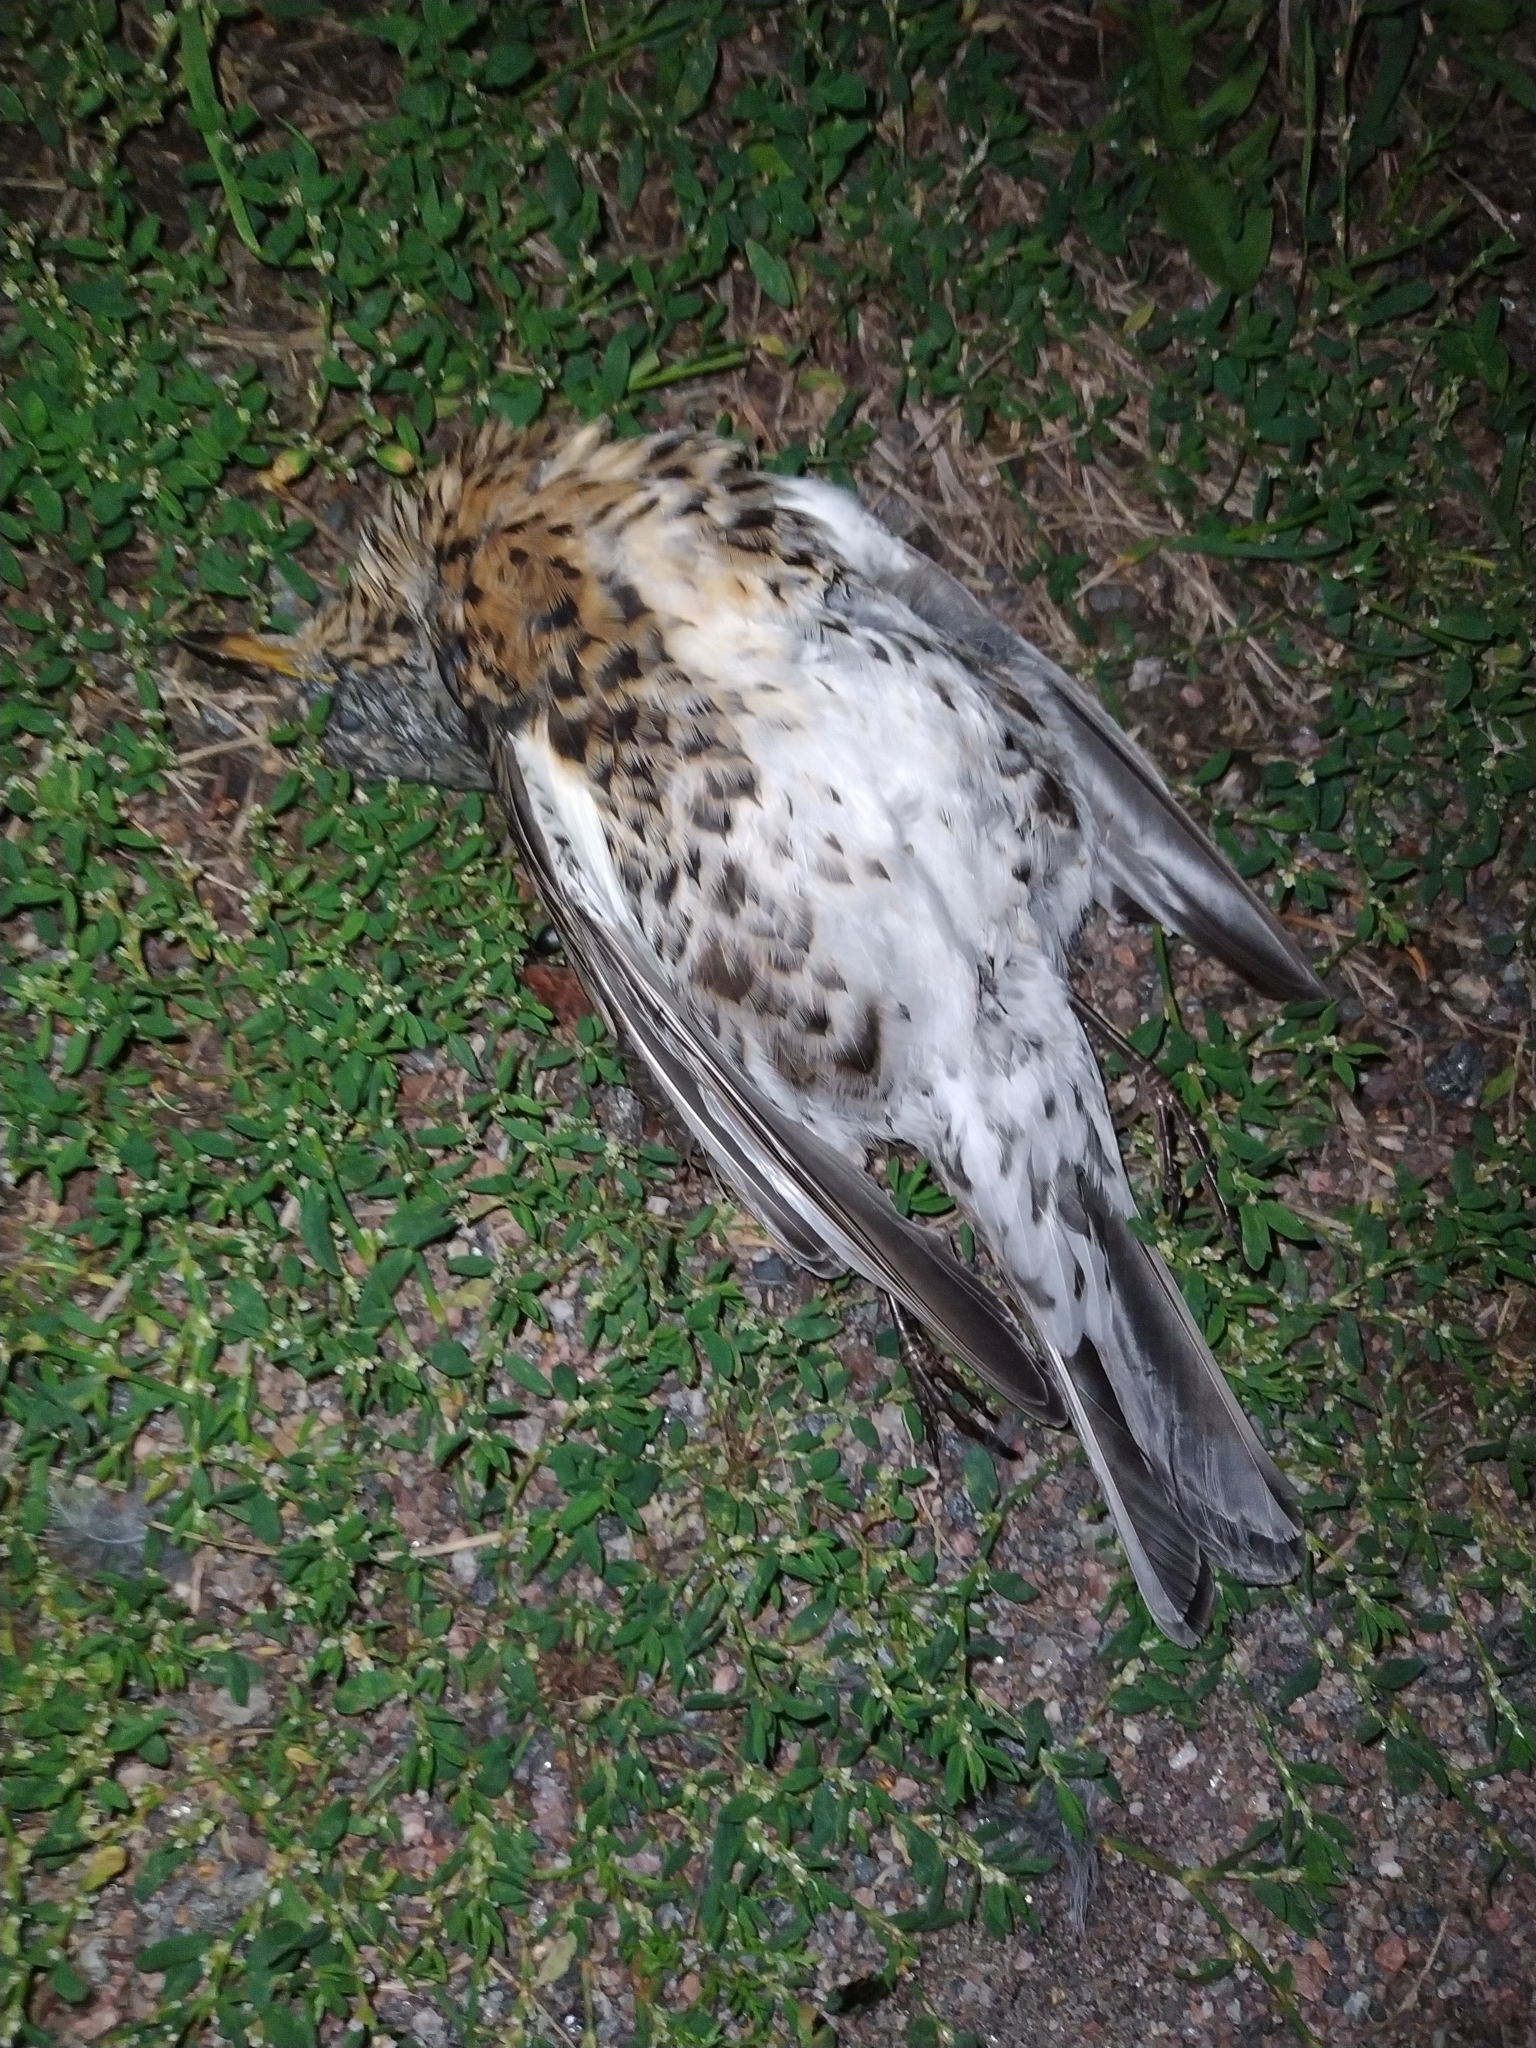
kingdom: Animalia
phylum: Chordata
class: Aves
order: Passeriformes
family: Turdidae
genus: Turdus
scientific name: Turdus pilaris
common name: Fieldfare
